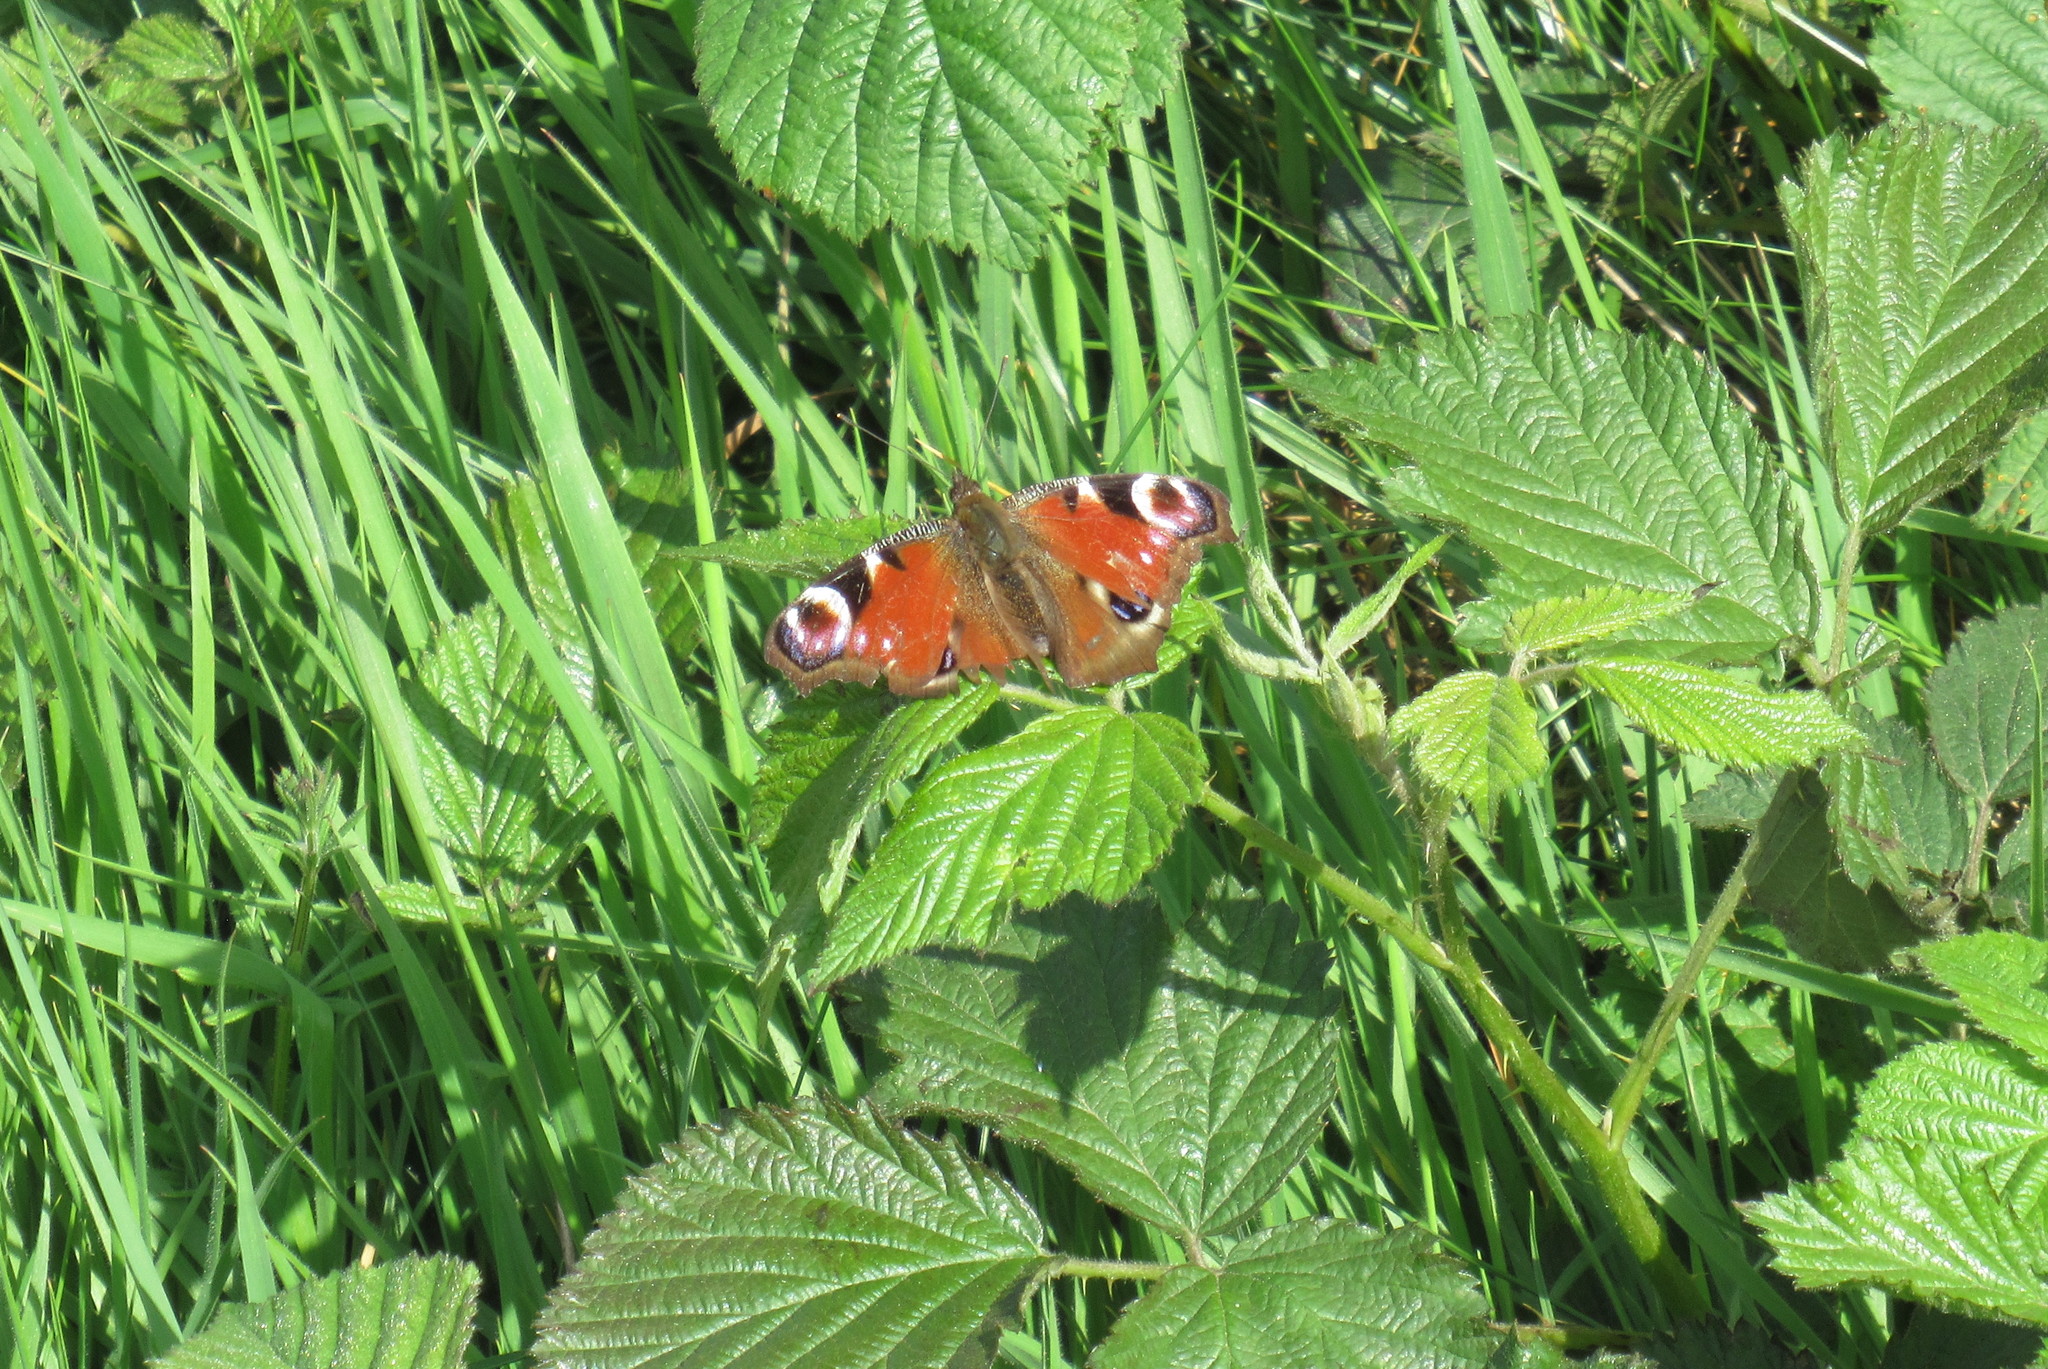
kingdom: Animalia
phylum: Arthropoda
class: Insecta
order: Lepidoptera
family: Nymphalidae
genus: Aglais
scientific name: Aglais io
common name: Peacock
